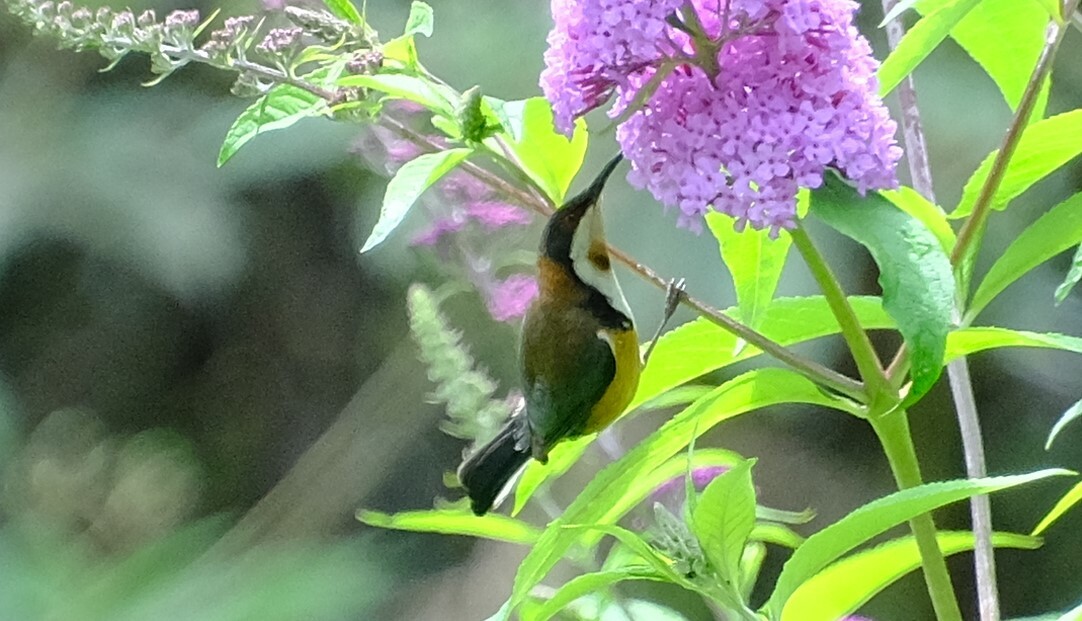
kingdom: Animalia
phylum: Chordata
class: Aves
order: Passeriformes
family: Meliphagidae
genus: Acanthorhynchus
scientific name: Acanthorhynchus tenuirostris
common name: Eastern spinebill
